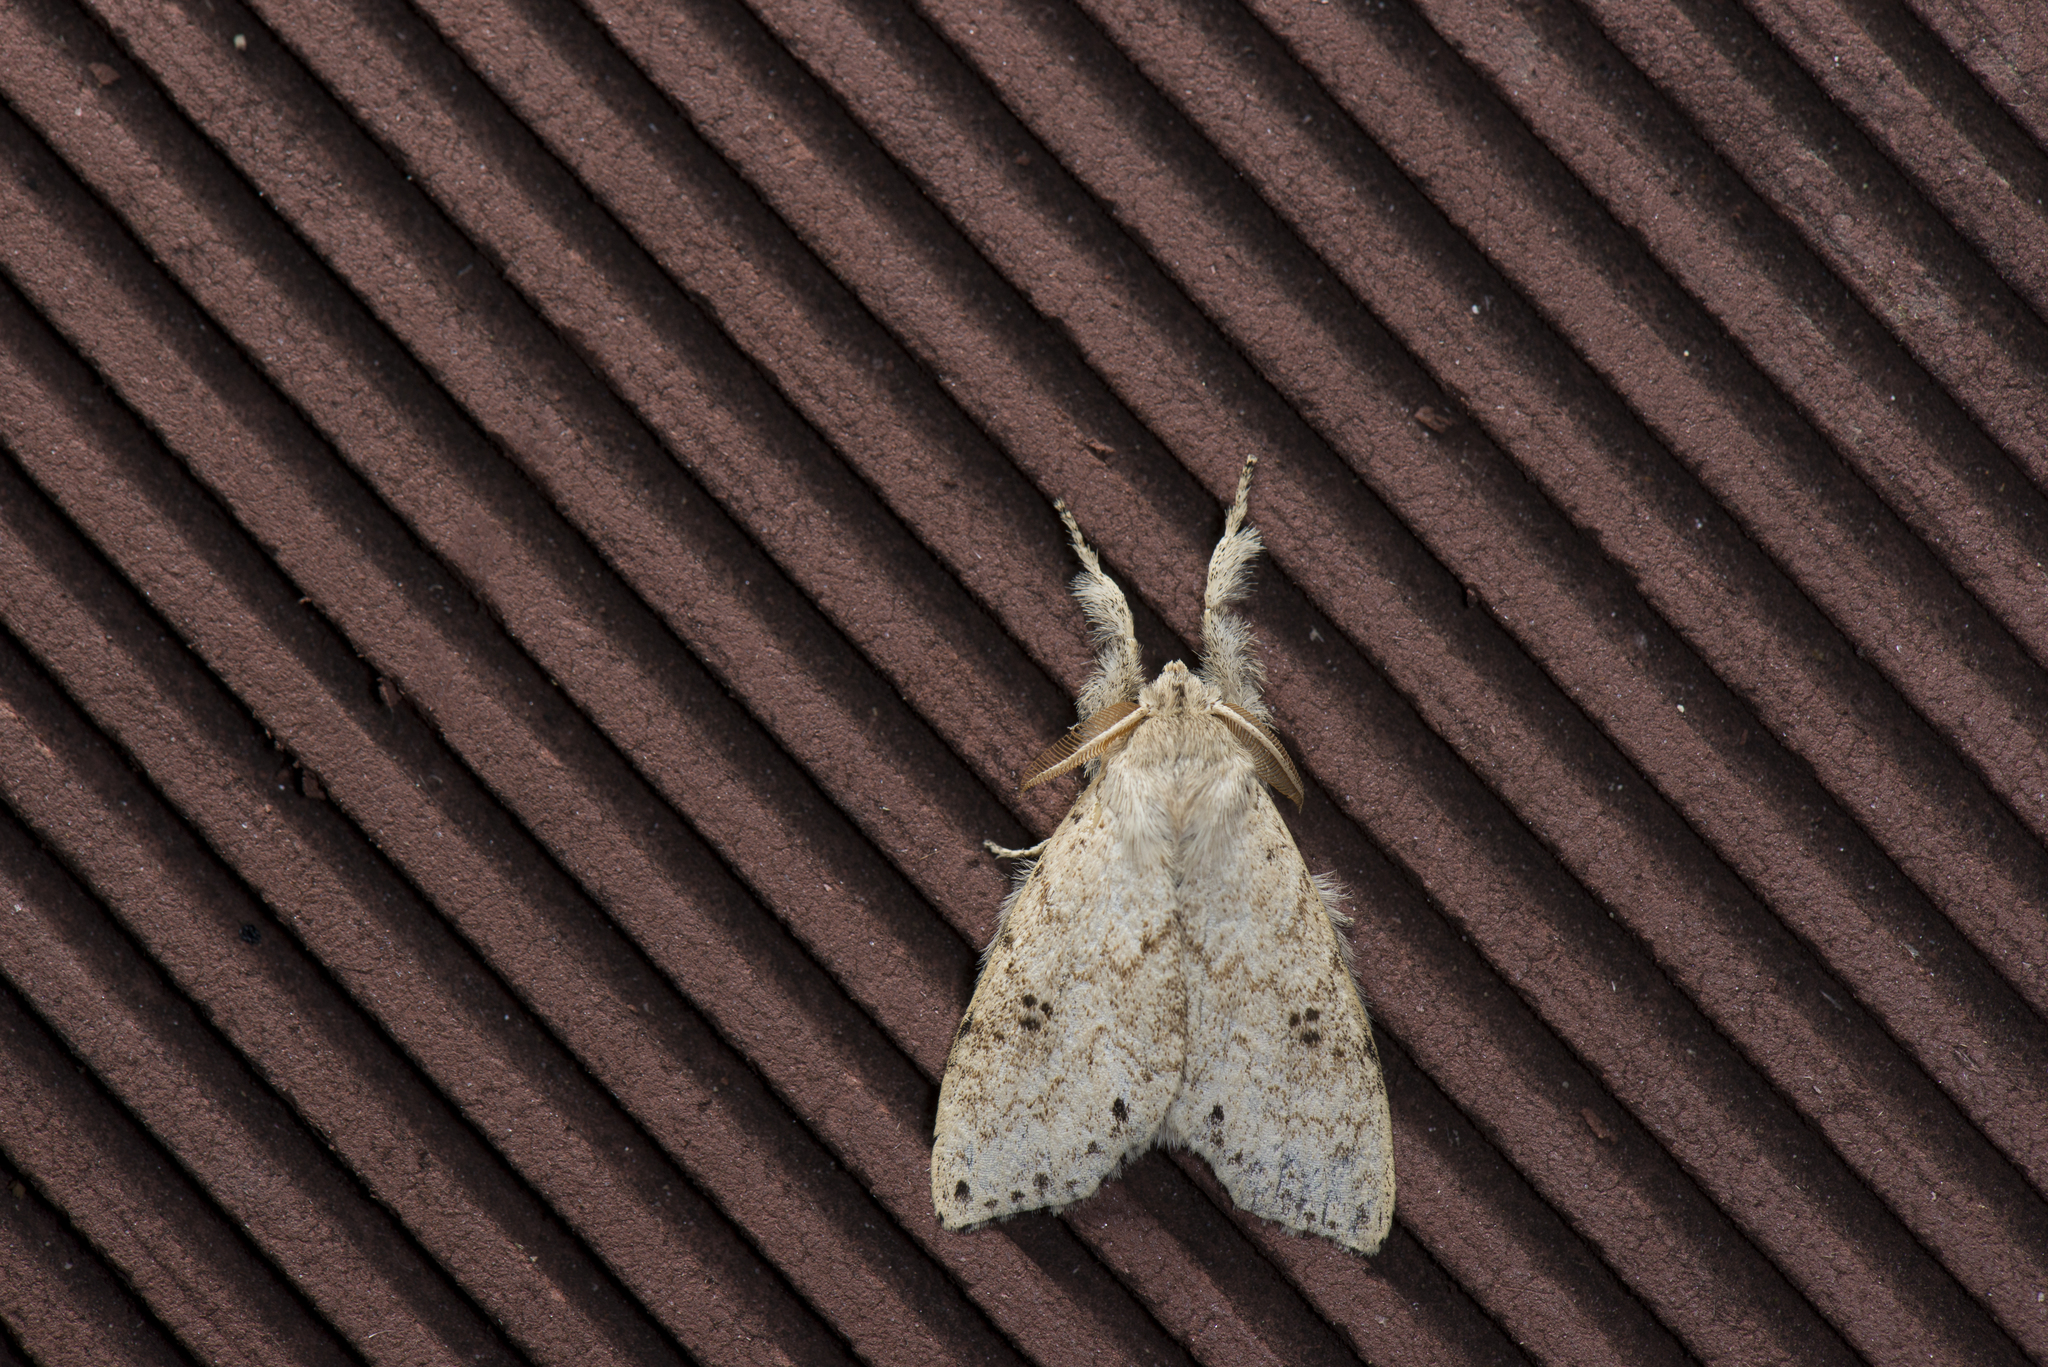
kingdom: Animalia
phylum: Arthropoda
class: Insecta
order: Lepidoptera
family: Erebidae
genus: Calliteara
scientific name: Calliteara angulata
